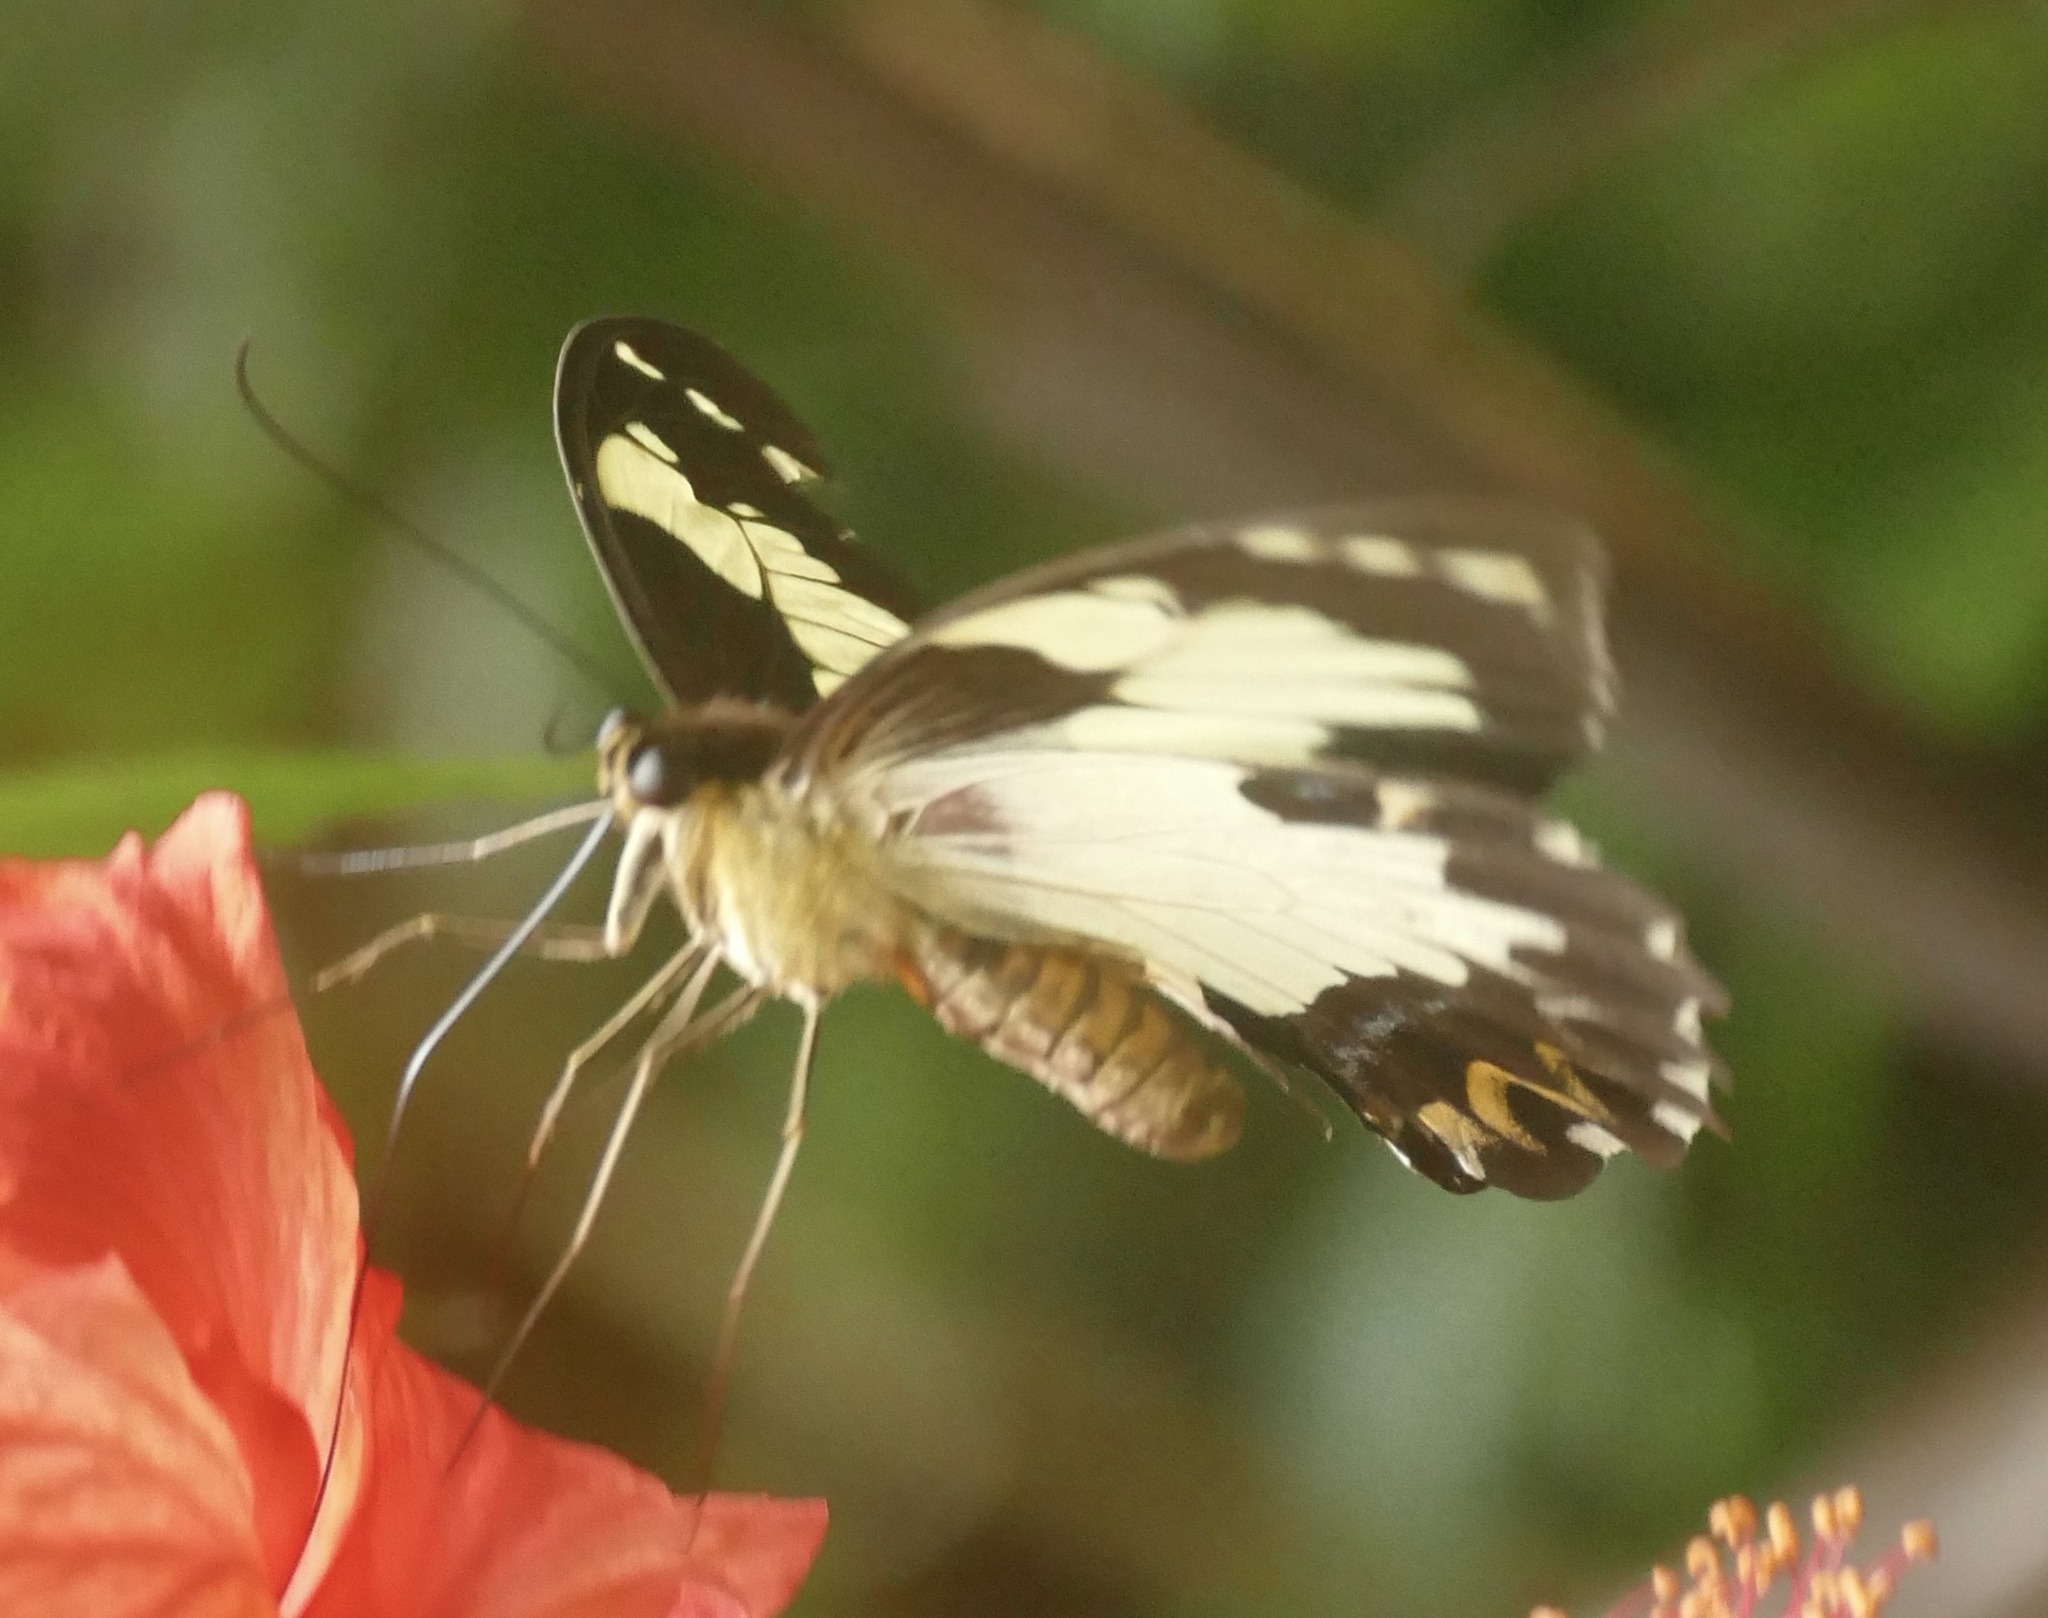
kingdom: Animalia
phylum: Arthropoda
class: Insecta
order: Lepidoptera
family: Papilionidae
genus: Papilio
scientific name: Papilio euchenor
